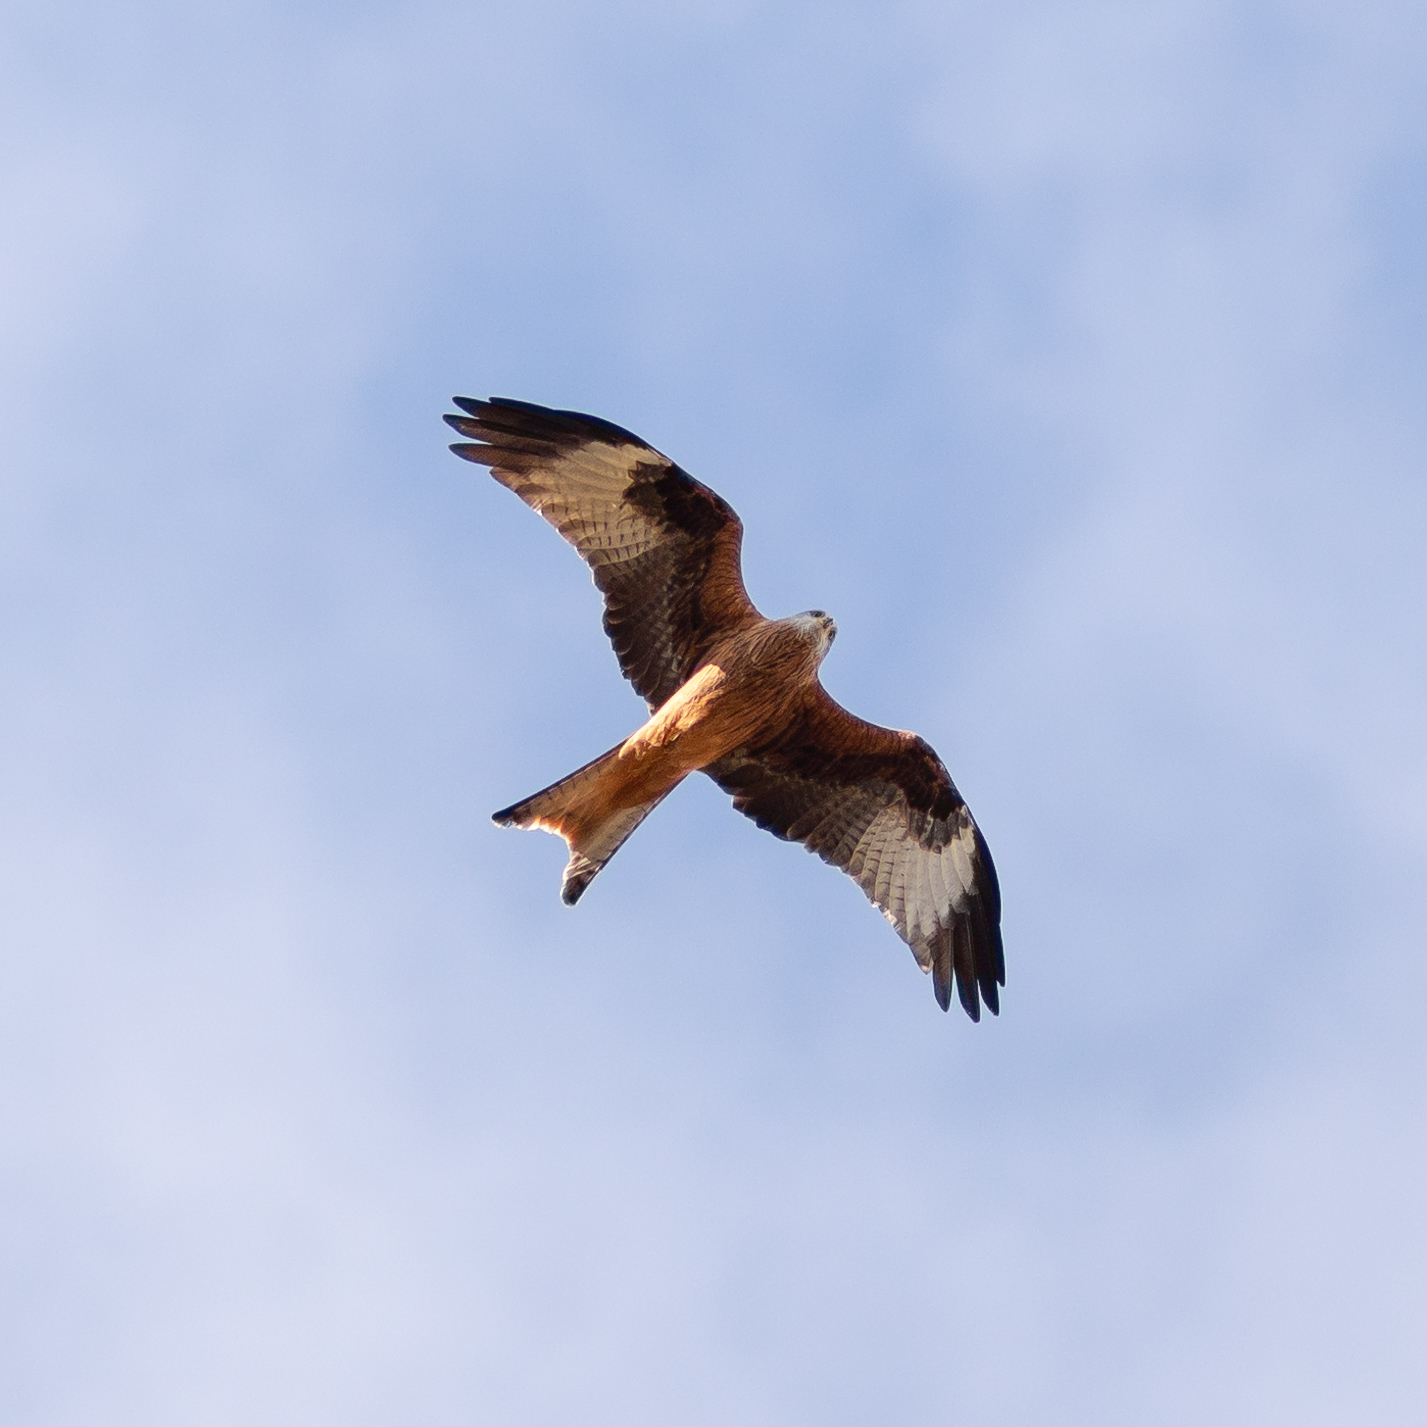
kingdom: Animalia
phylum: Chordata
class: Aves
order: Accipitriformes
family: Accipitridae
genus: Milvus
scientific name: Milvus milvus
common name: Red kite
